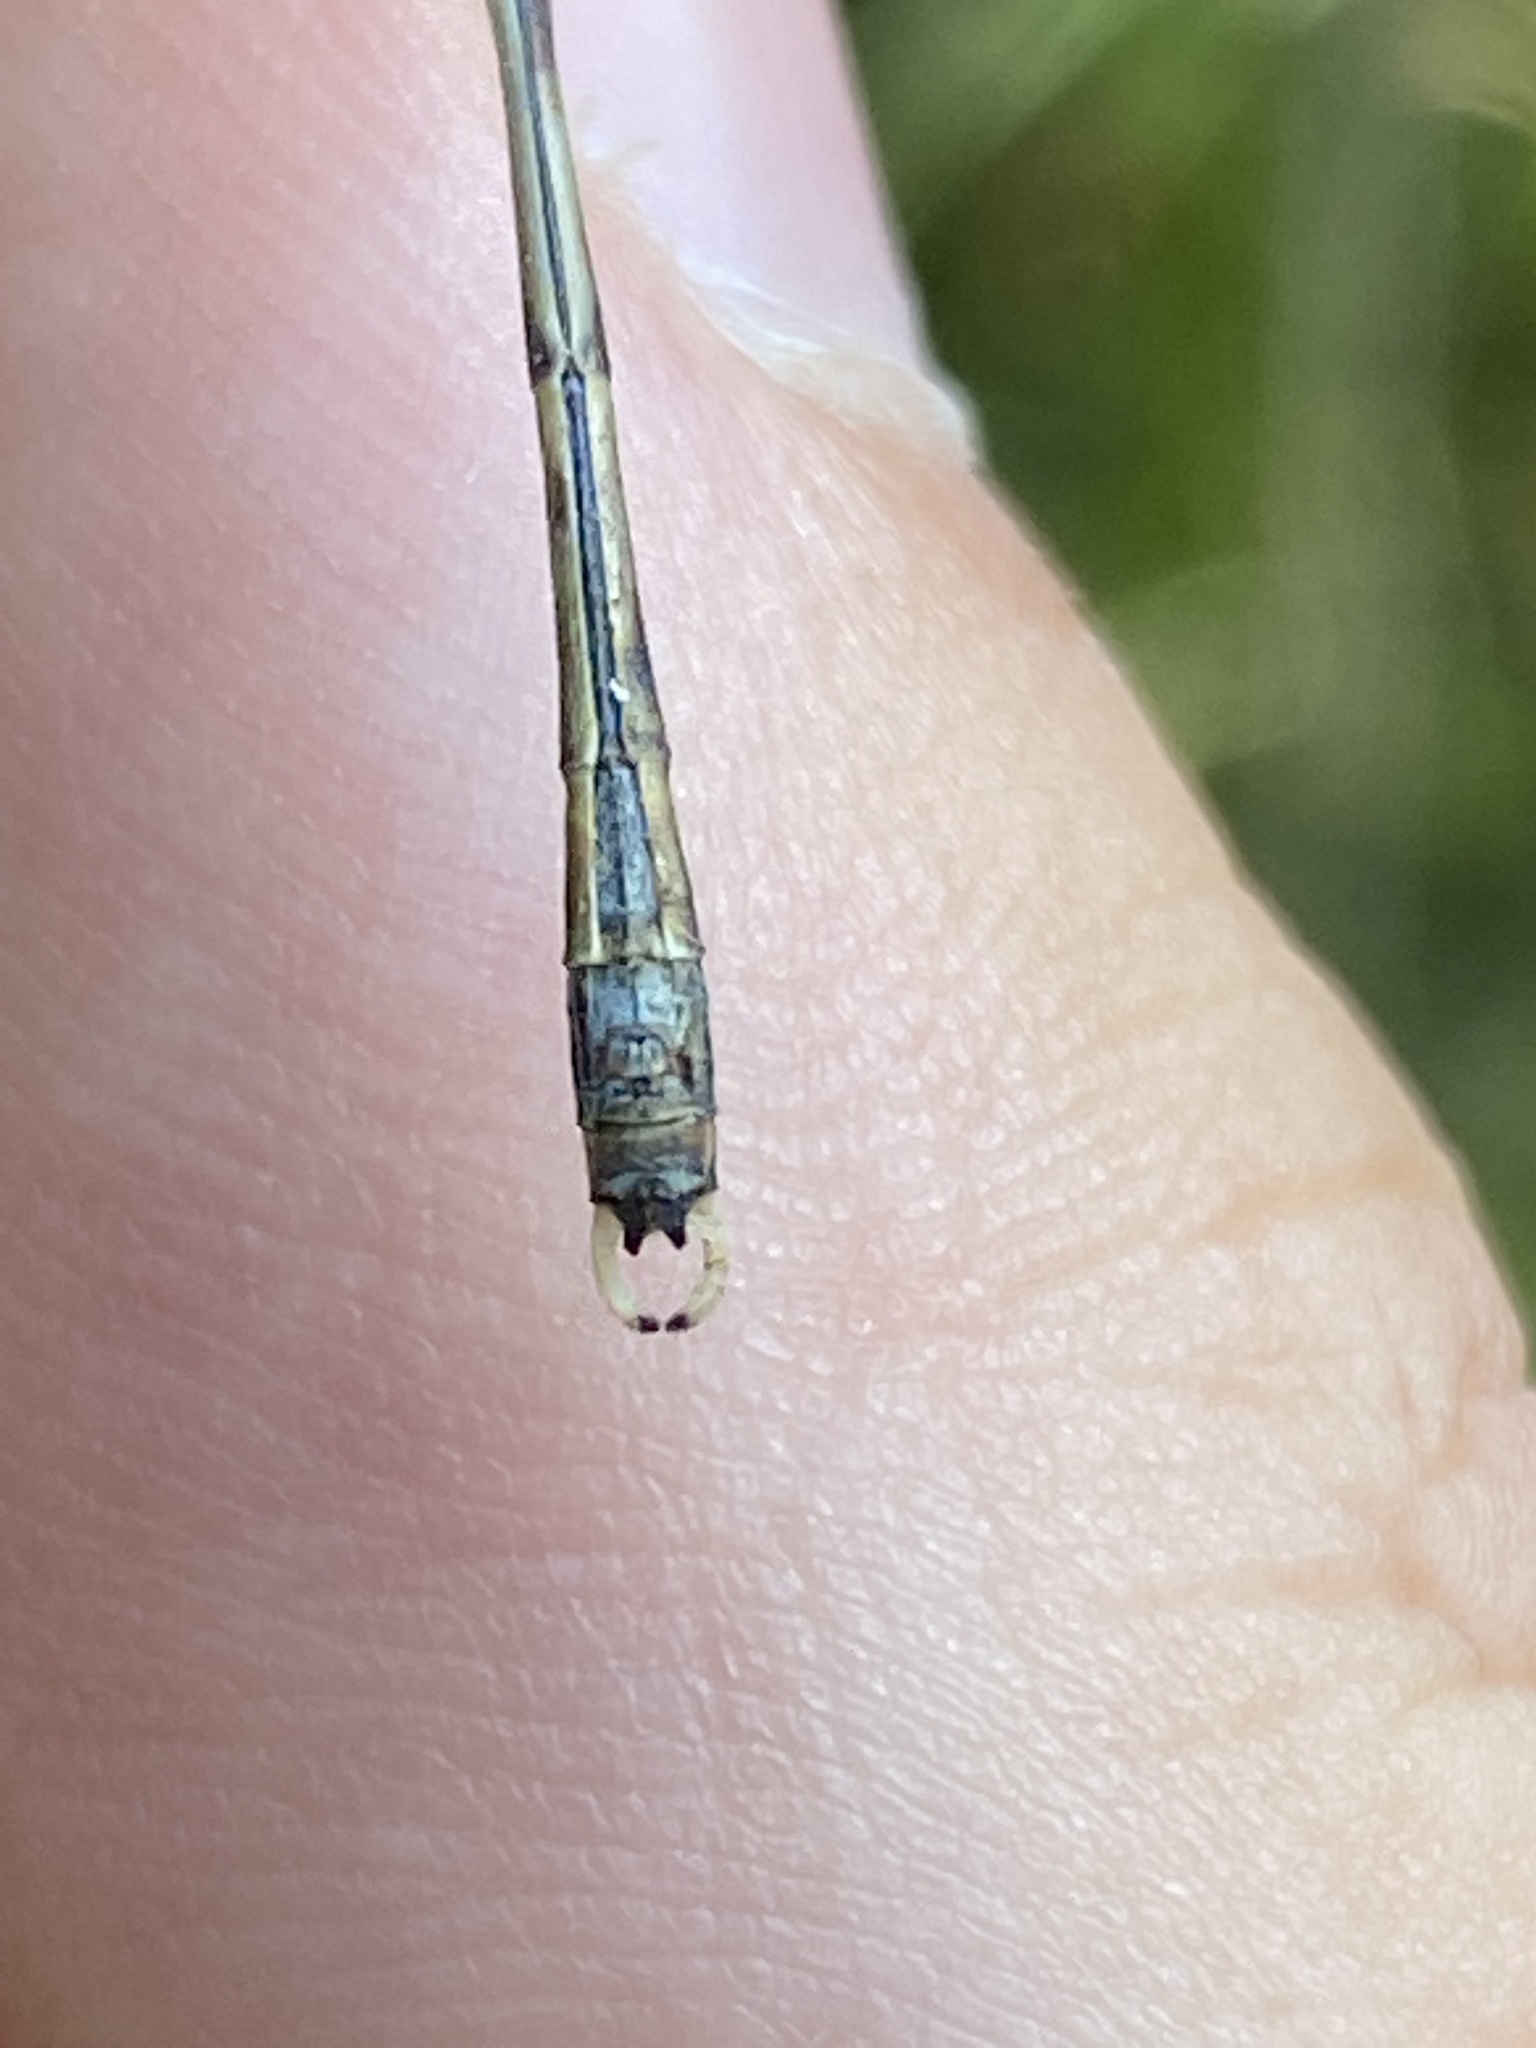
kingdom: Animalia
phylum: Arthropoda
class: Insecta
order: Odonata
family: Lestidae
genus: Chalcolestes
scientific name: Chalcolestes parvidens
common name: Eastern willow spreadwing
